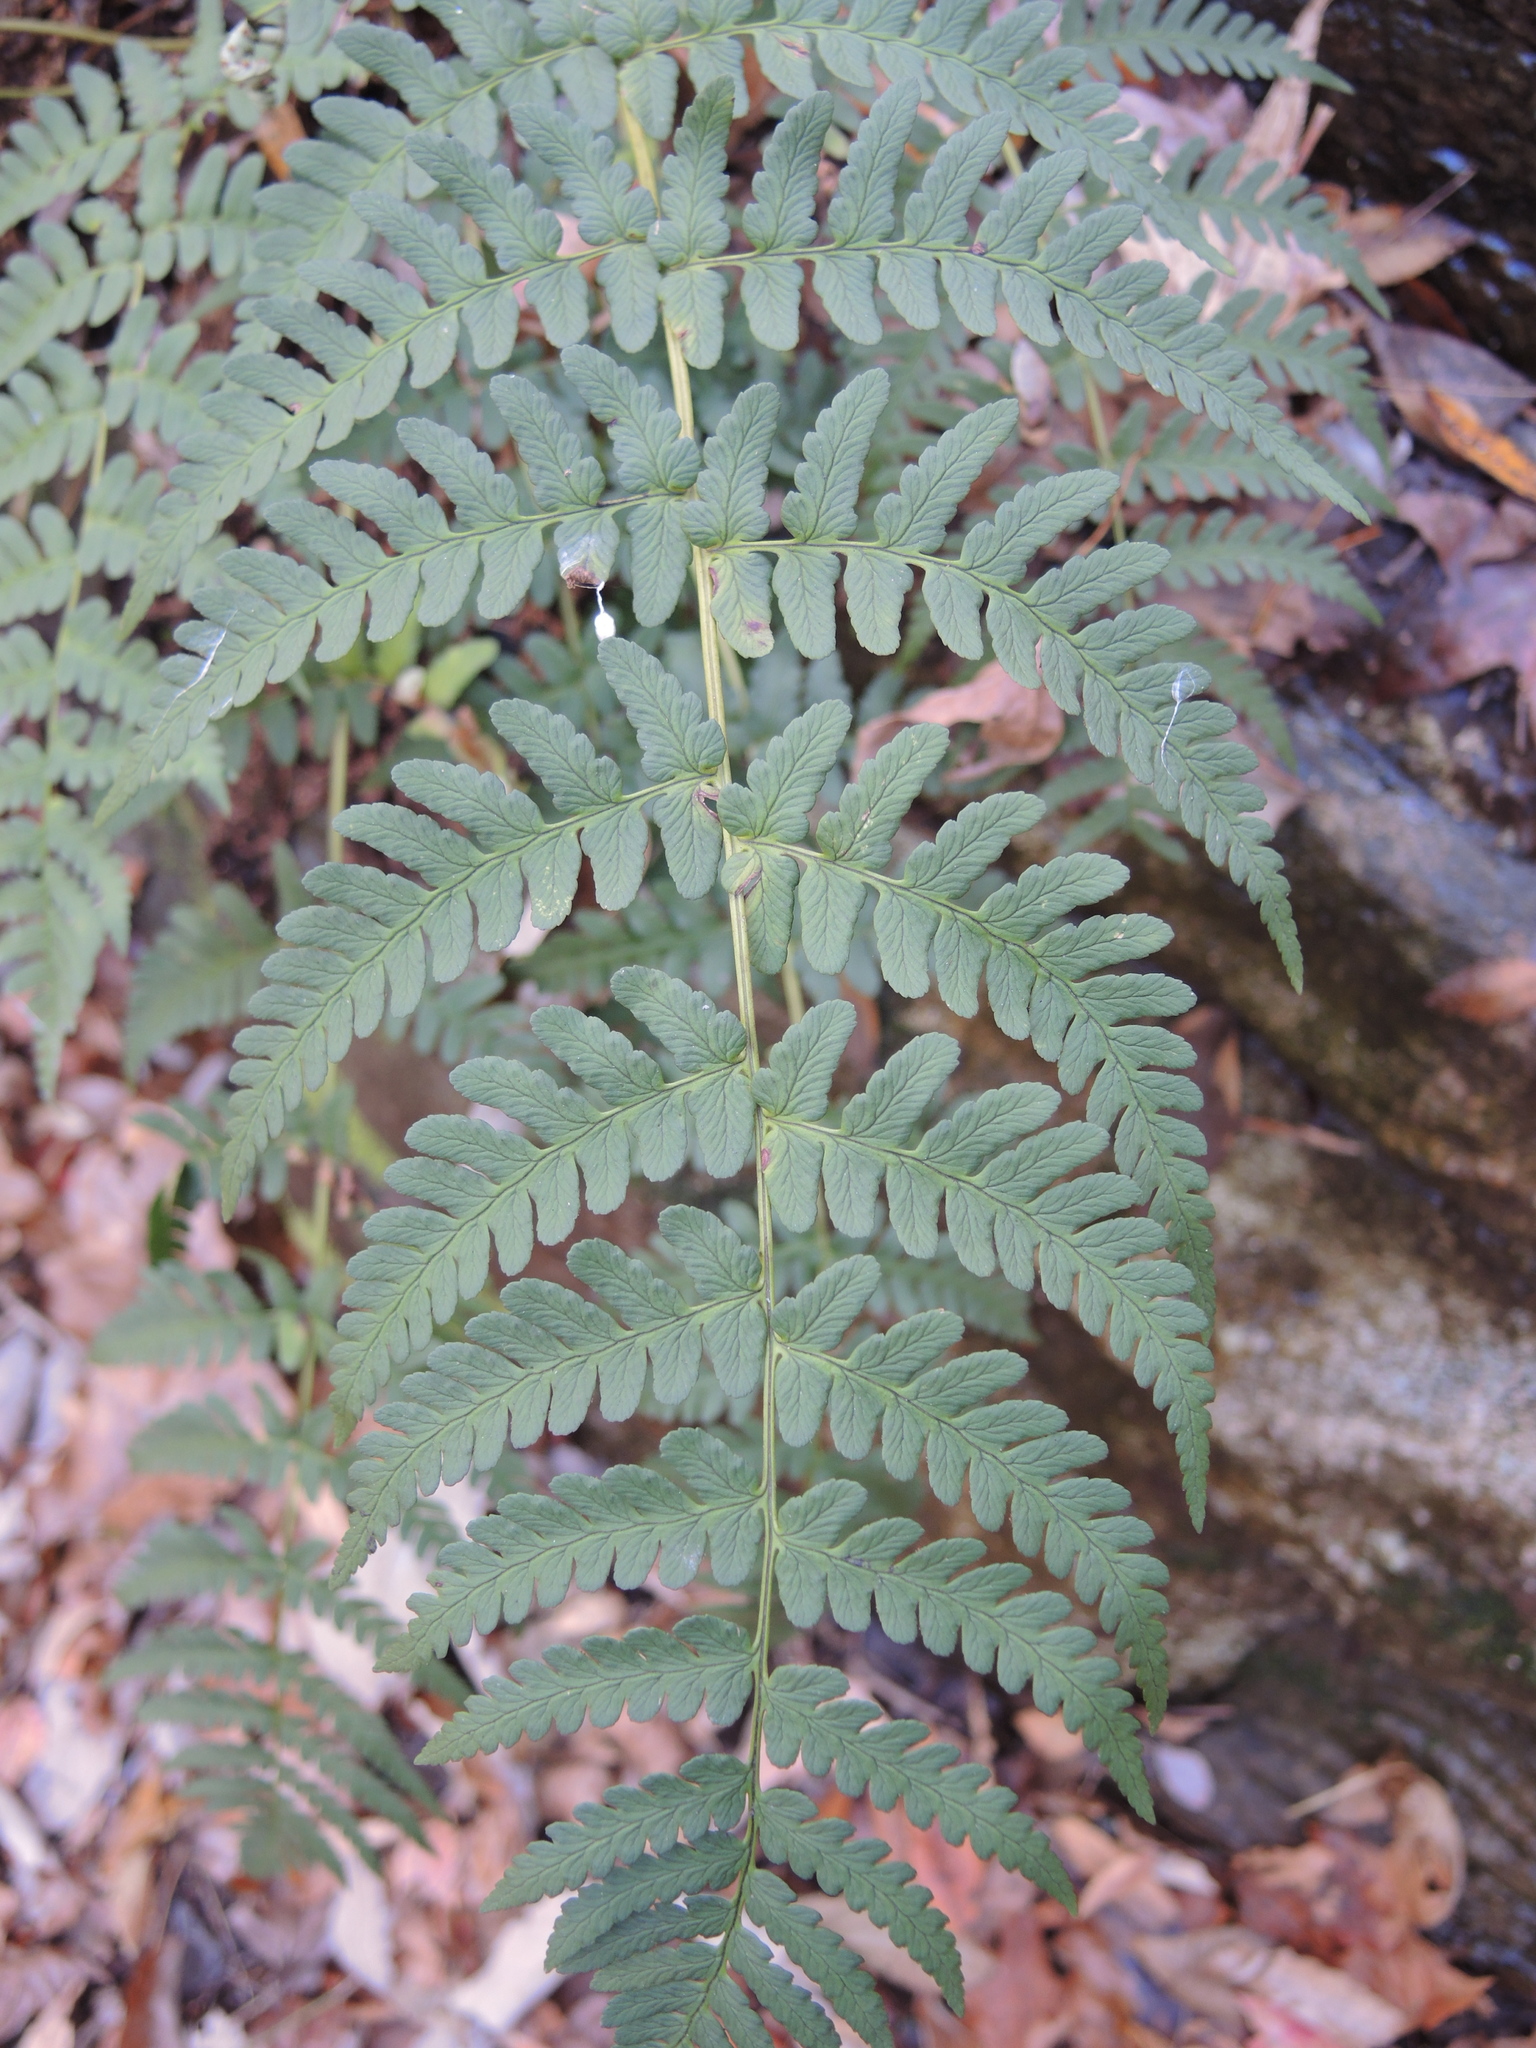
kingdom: Plantae
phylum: Tracheophyta
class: Polypodiopsida
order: Polypodiales
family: Dryopteridaceae
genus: Dryopteris
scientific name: Dryopteris marginalis
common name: Marginal wood fern
